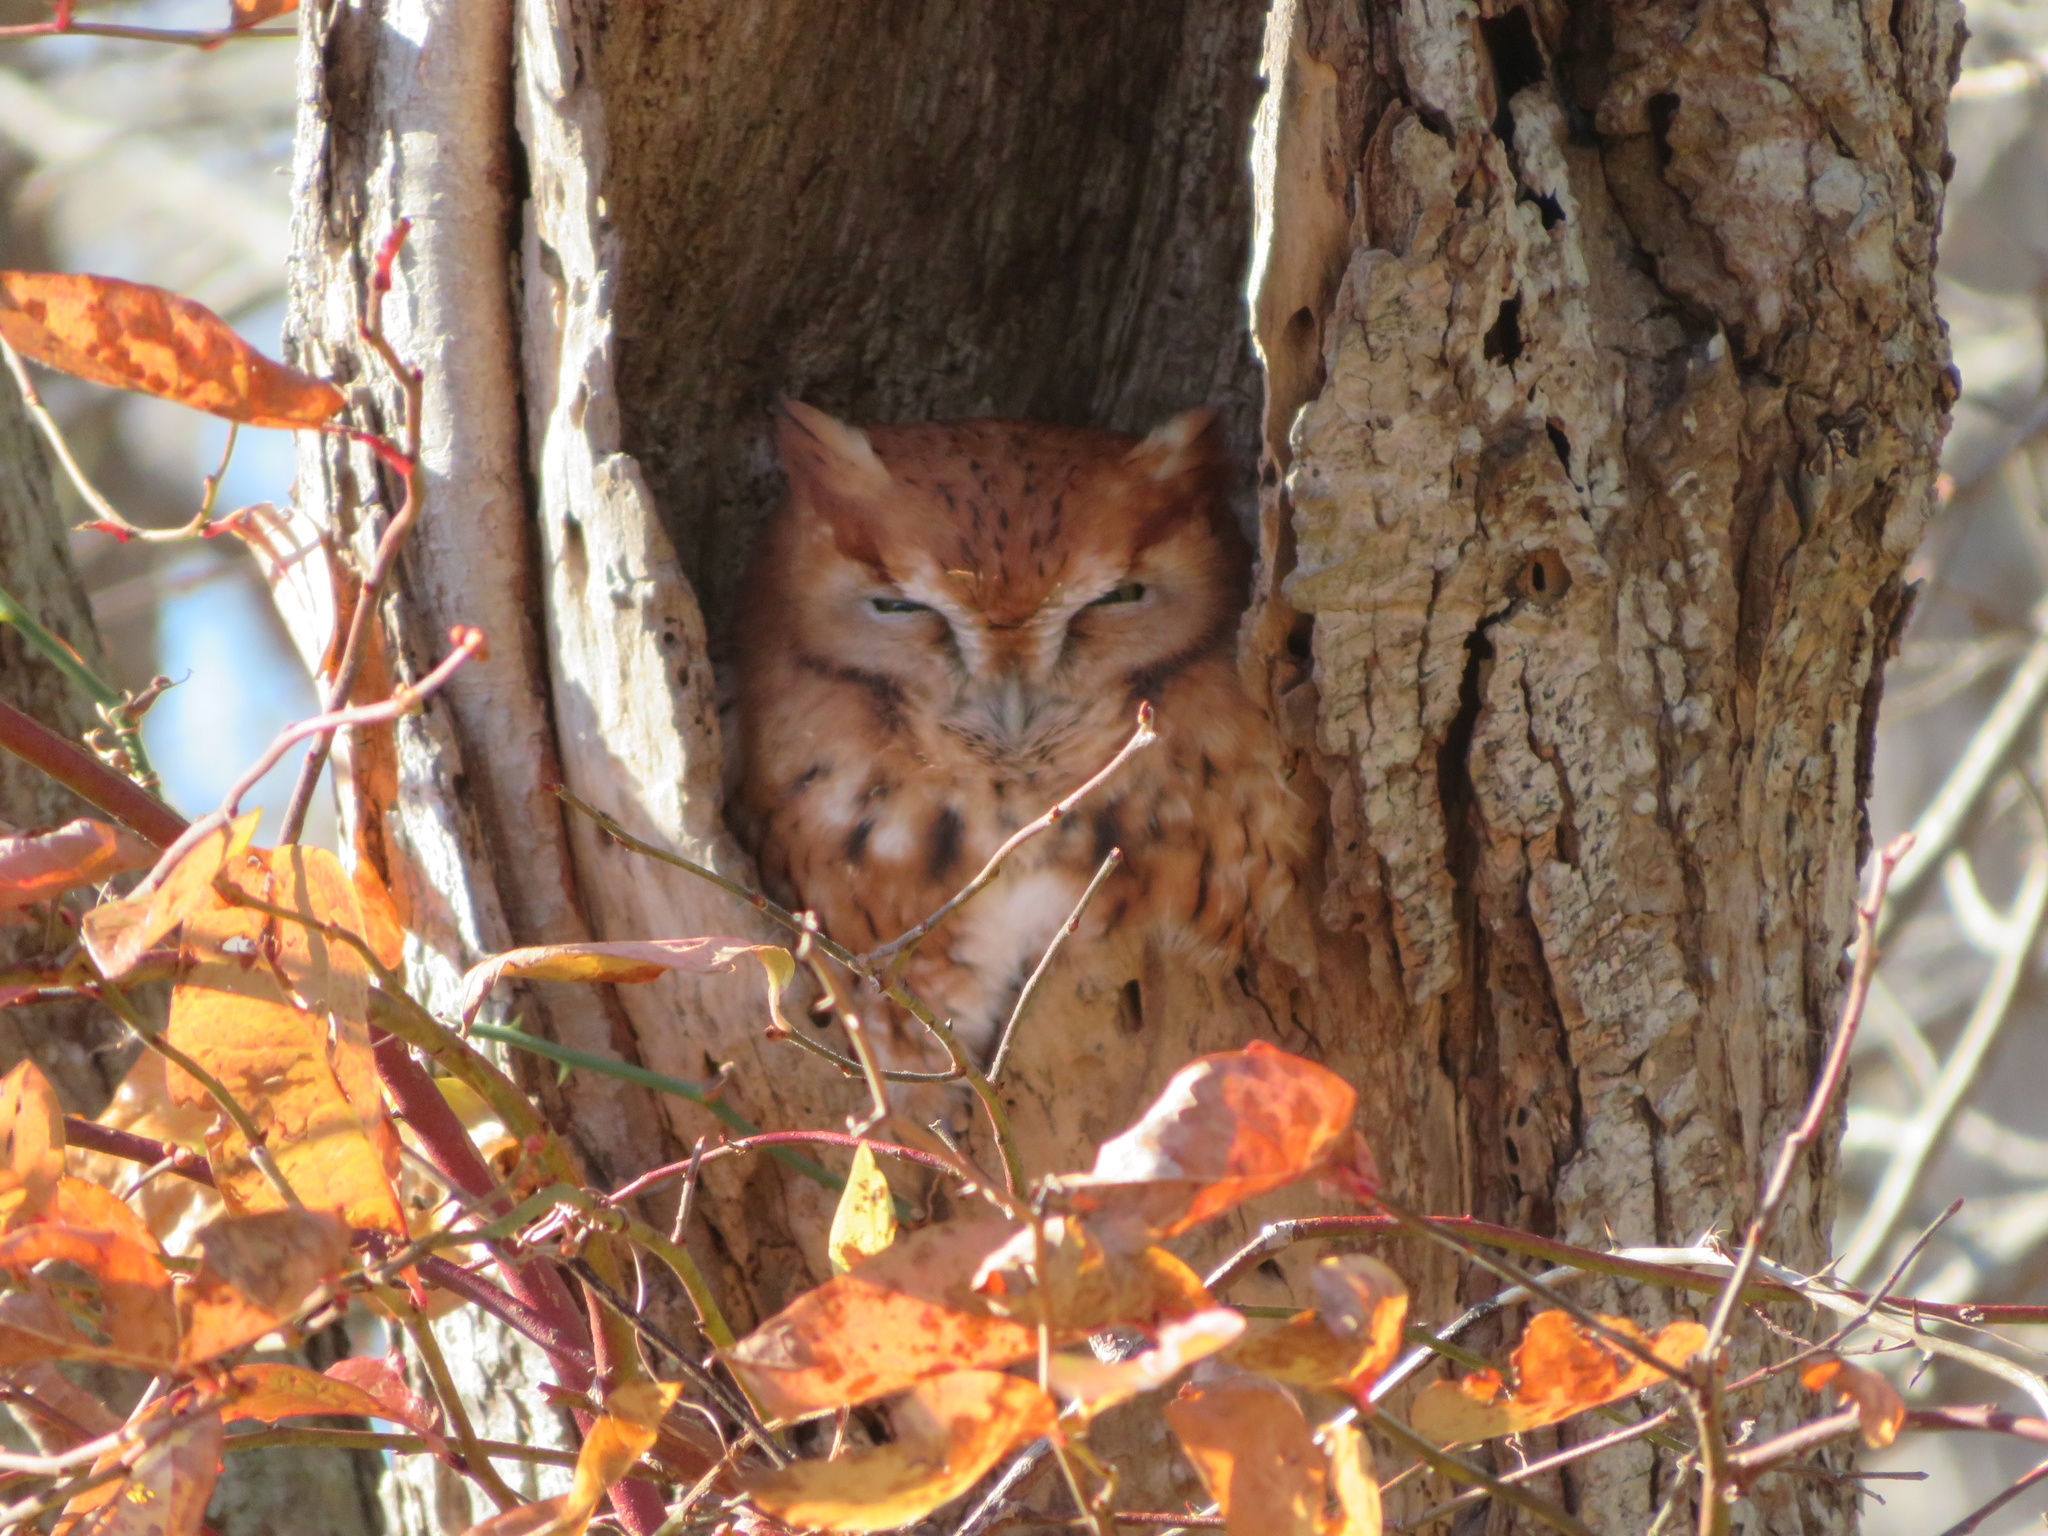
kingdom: Animalia
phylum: Chordata
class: Aves
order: Strigiformes
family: Strigidae
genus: Megascops
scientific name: Megascops asio
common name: Eastern screech-owl
